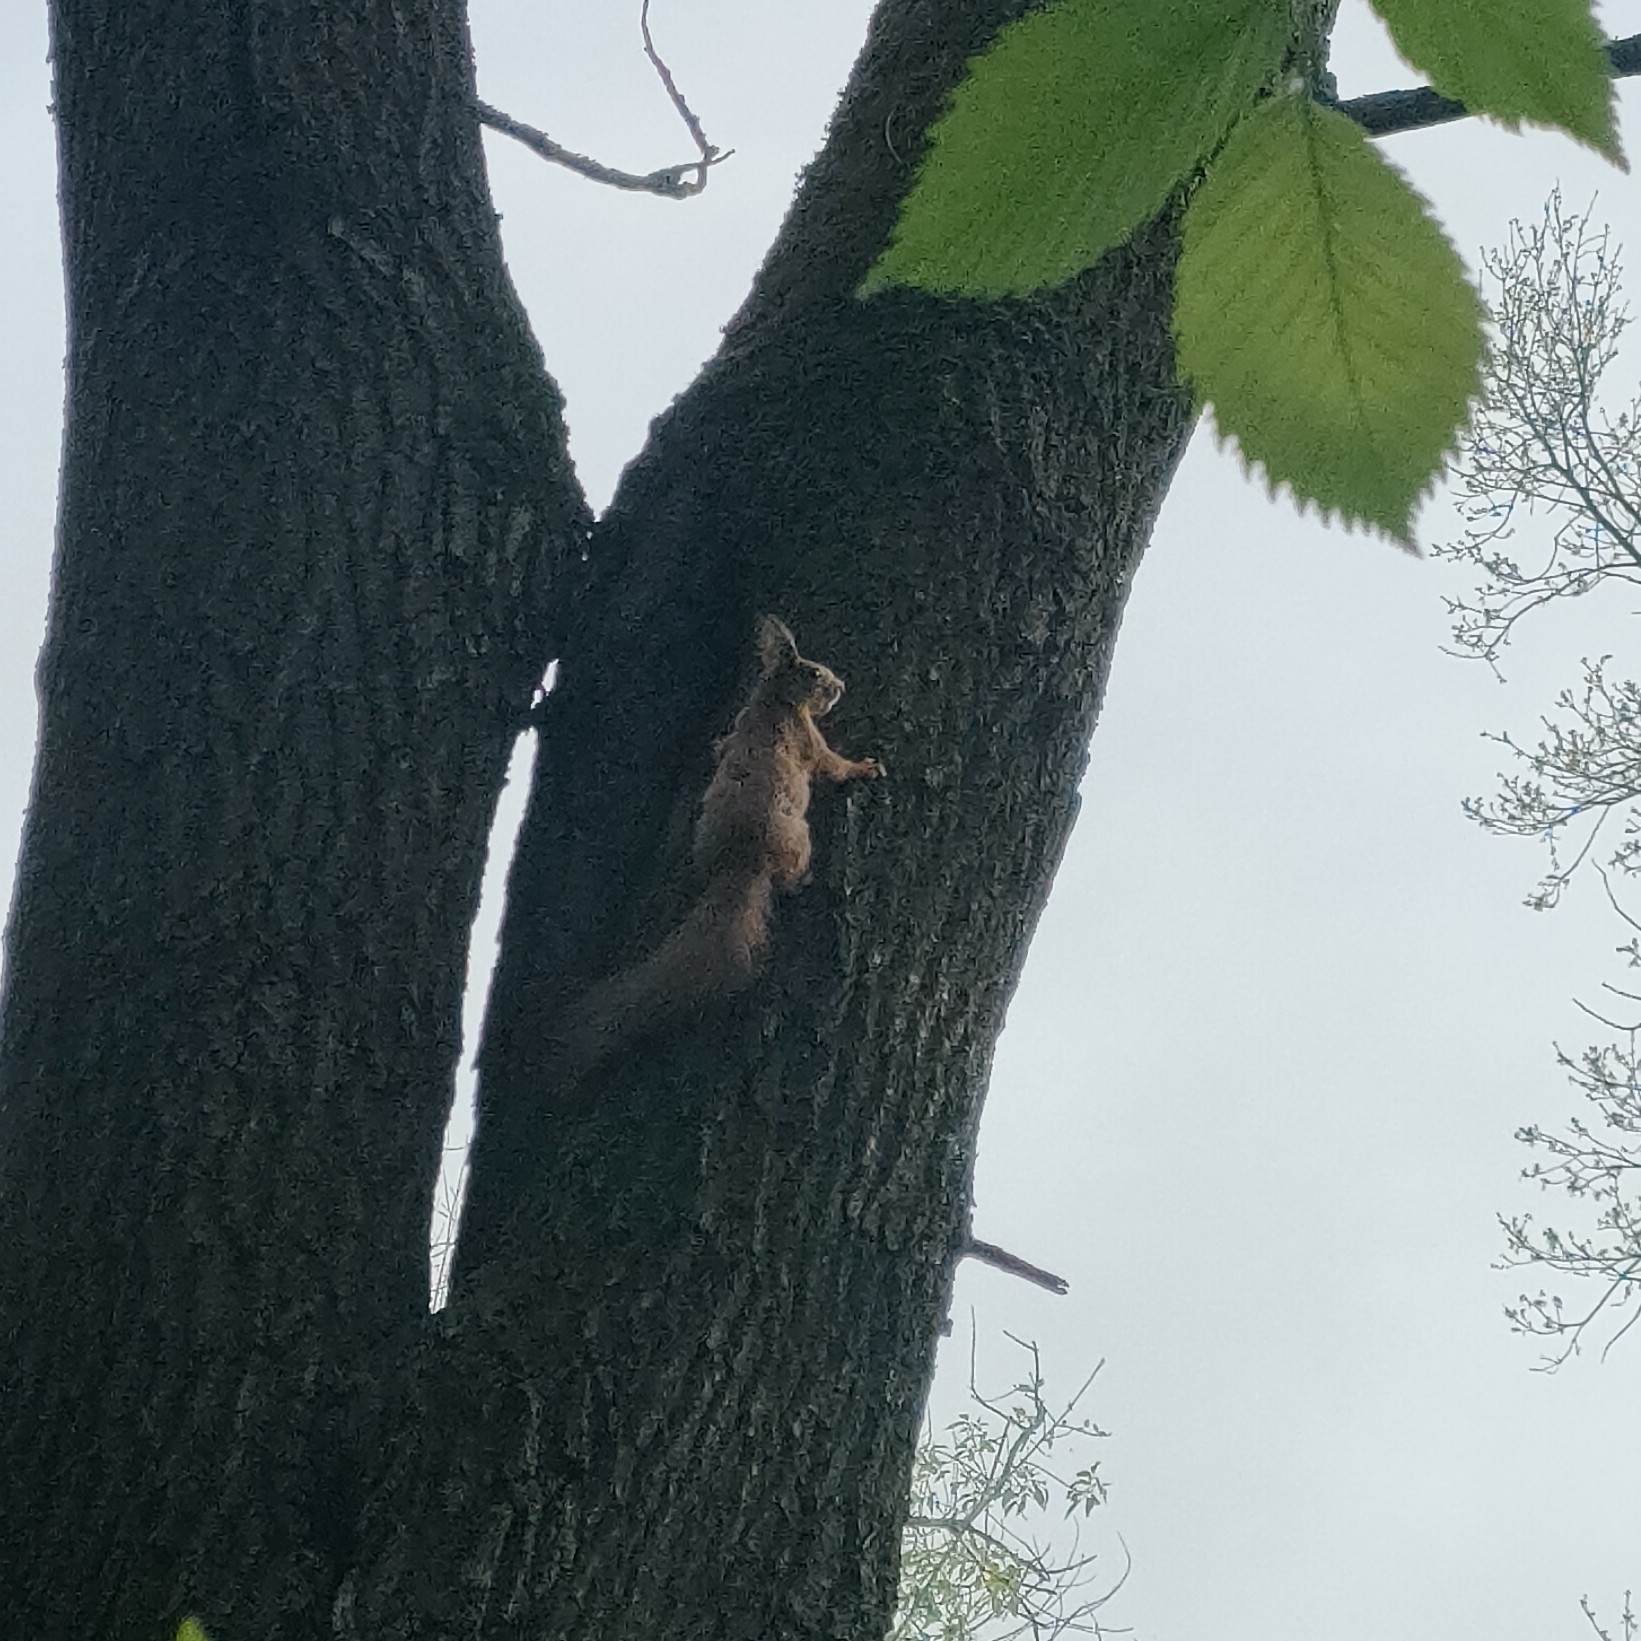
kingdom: Animalia
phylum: Chordata
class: Mammalia
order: Rodentia
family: Sciuridae
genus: Sciurus
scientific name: Sciurus vulgaris
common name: Eurasian red squirrel
